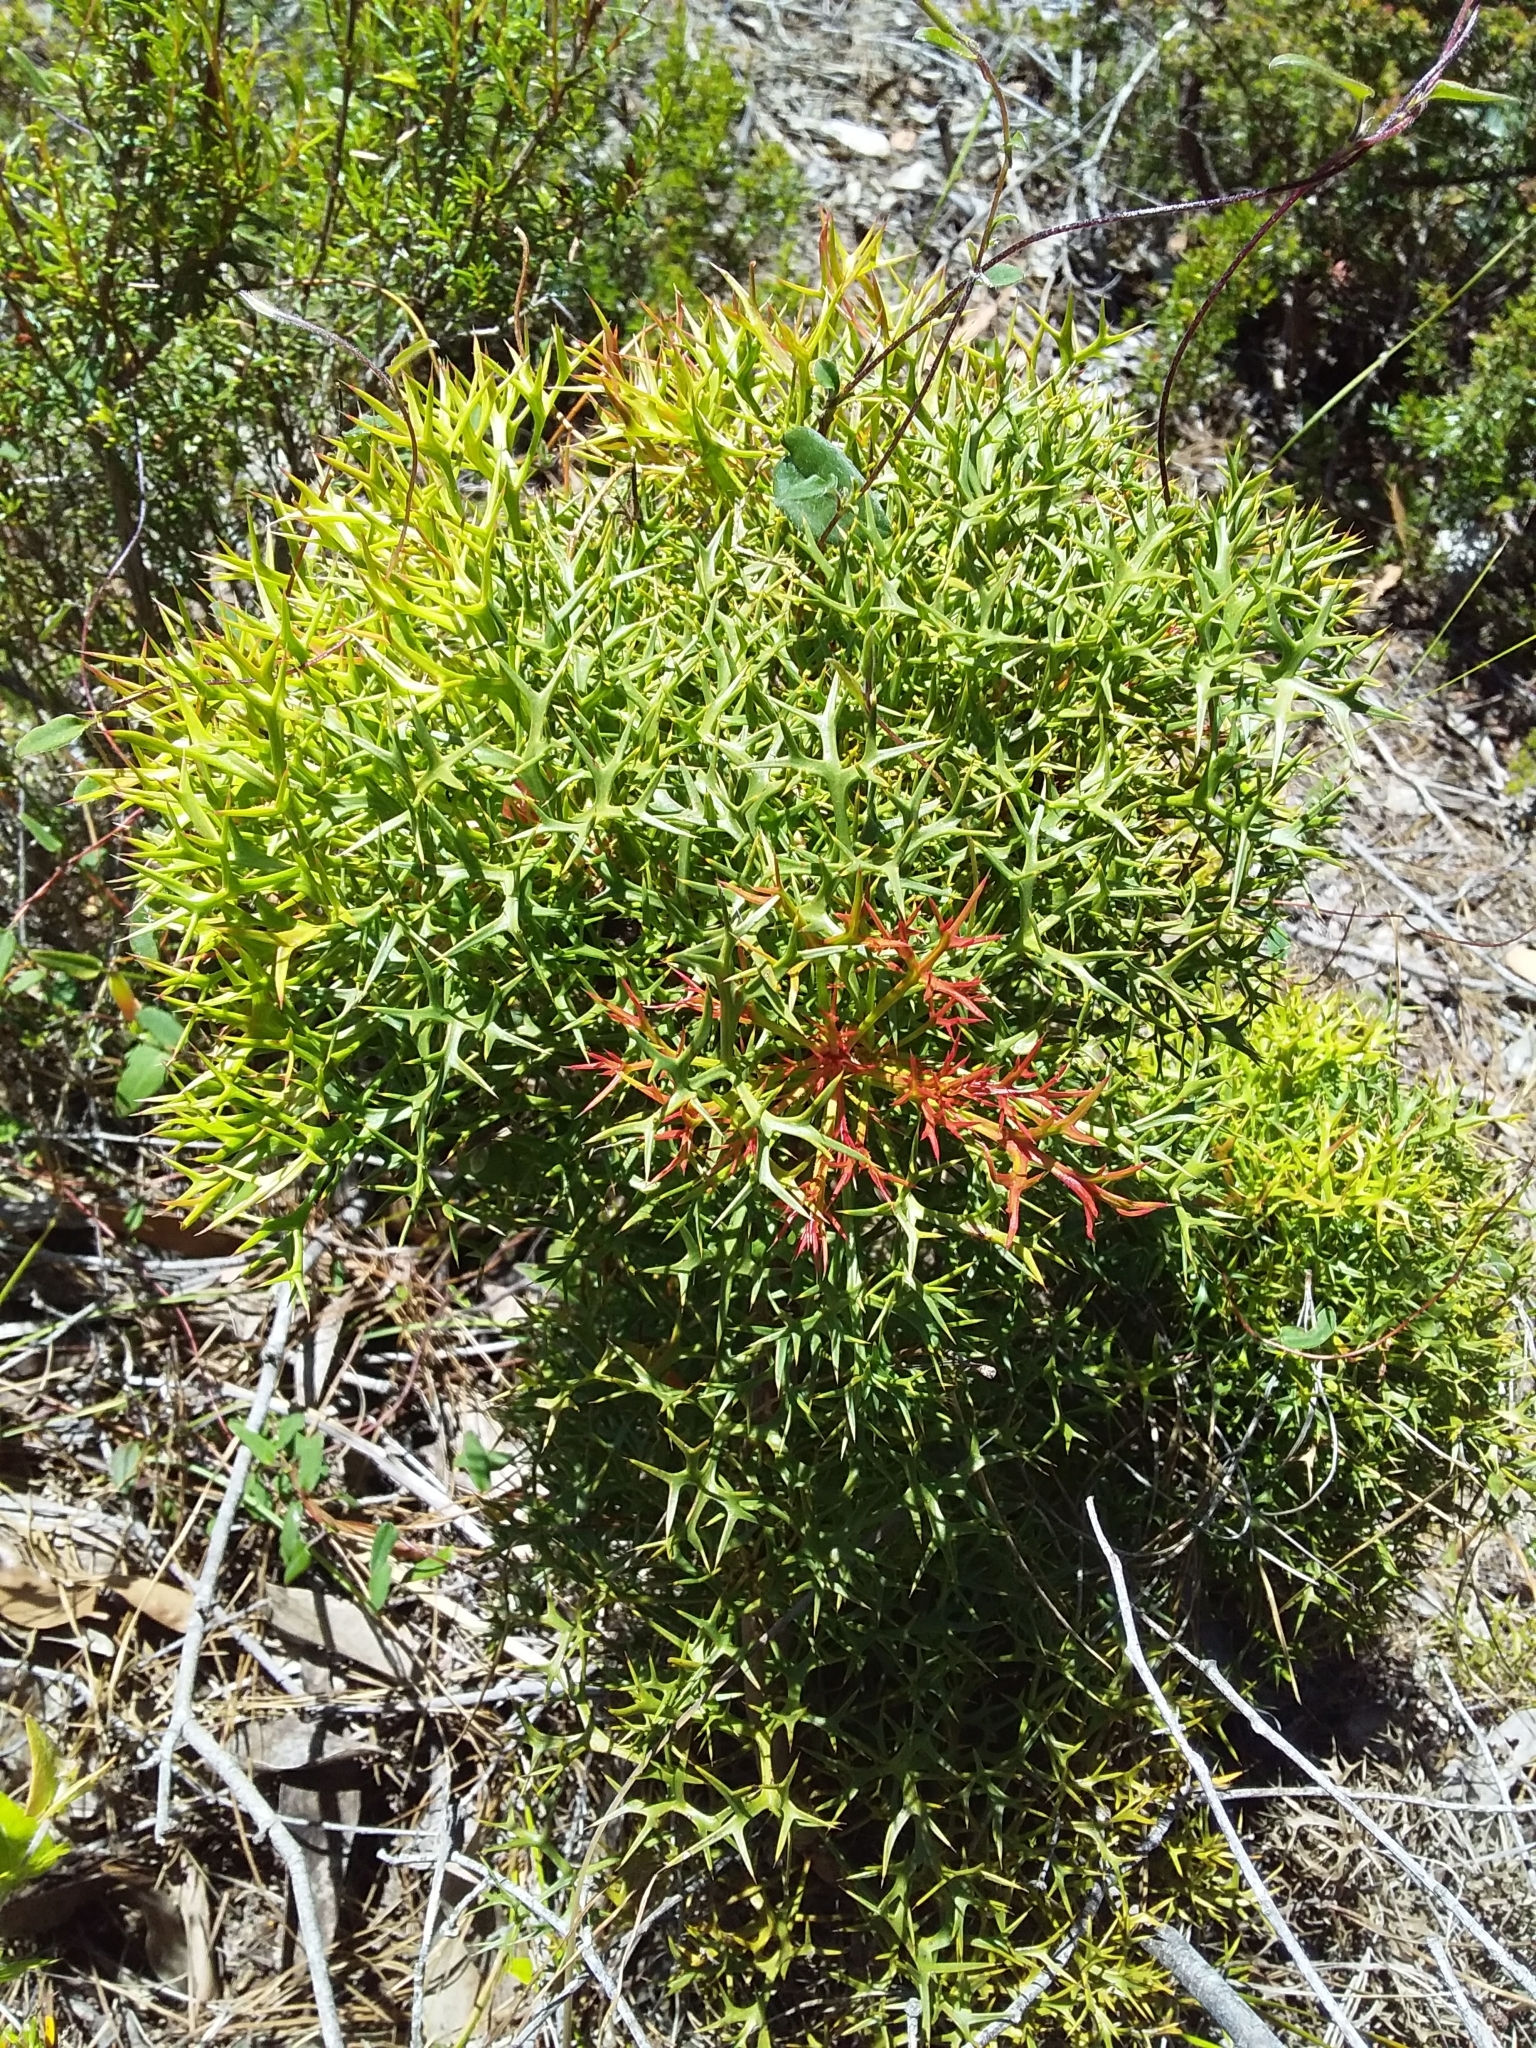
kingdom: Plantae
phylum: Tracheophyta
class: Magnoliopsida
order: Proteales
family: Proteaceae
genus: Isopogon
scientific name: Isopogon ceratophyllus
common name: Horny cone-bush
